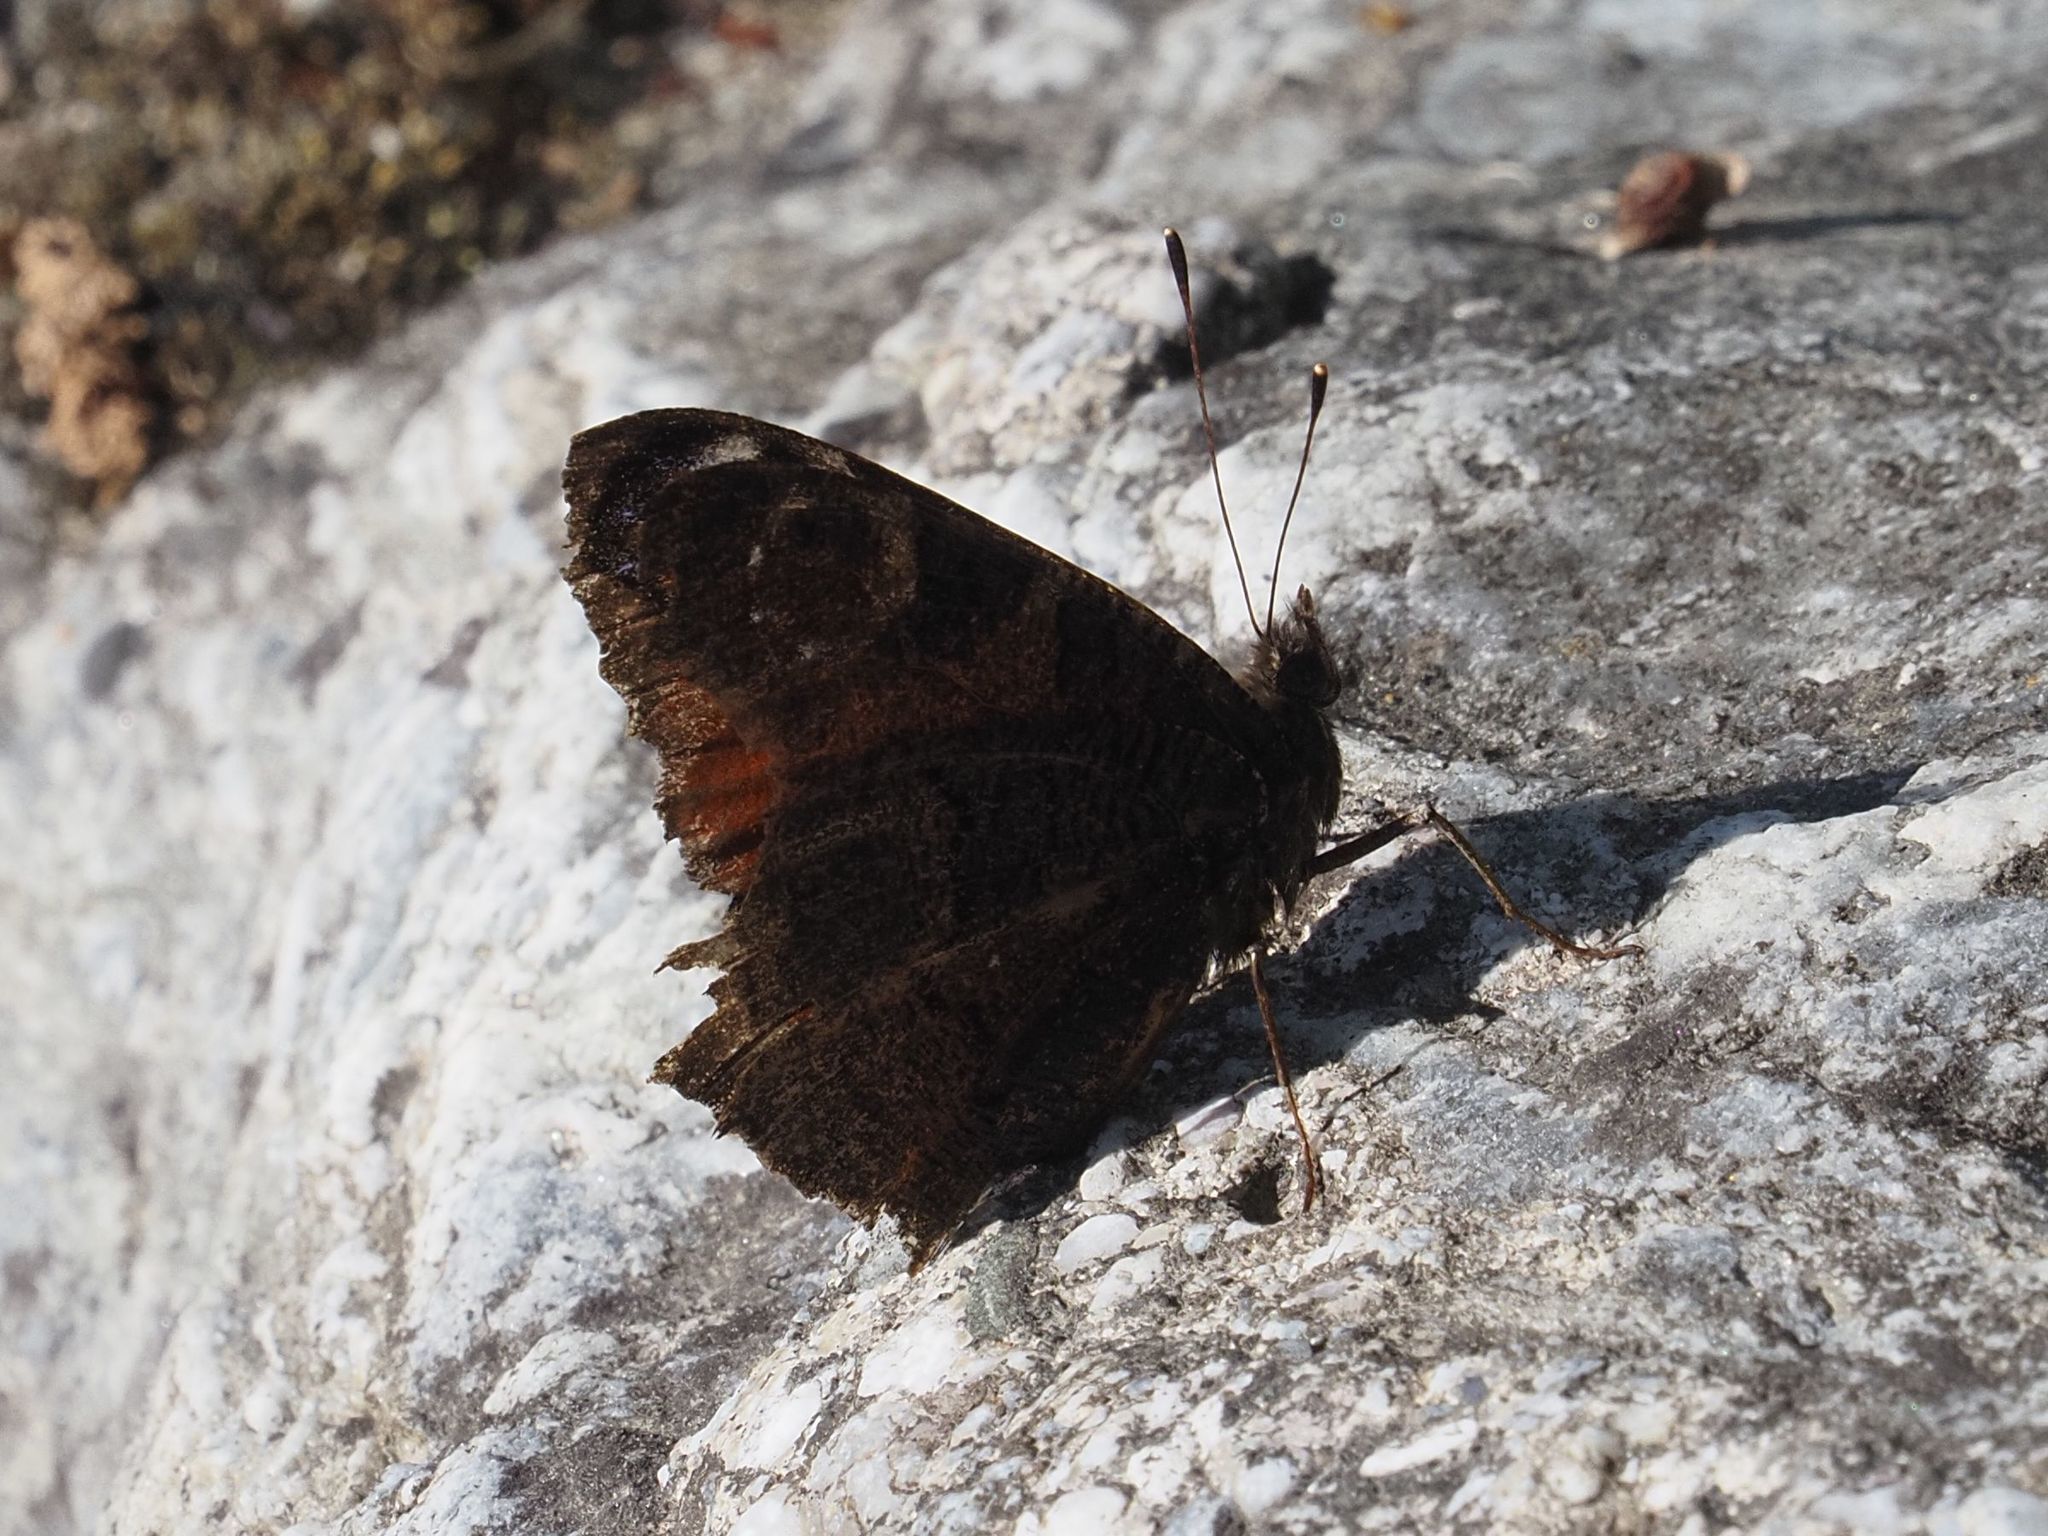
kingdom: Animalia
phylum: Arthropoda
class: Insecta
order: Lepidoptera
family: Nymphalidae
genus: Aglais
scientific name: Aglais io
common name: Peacock
